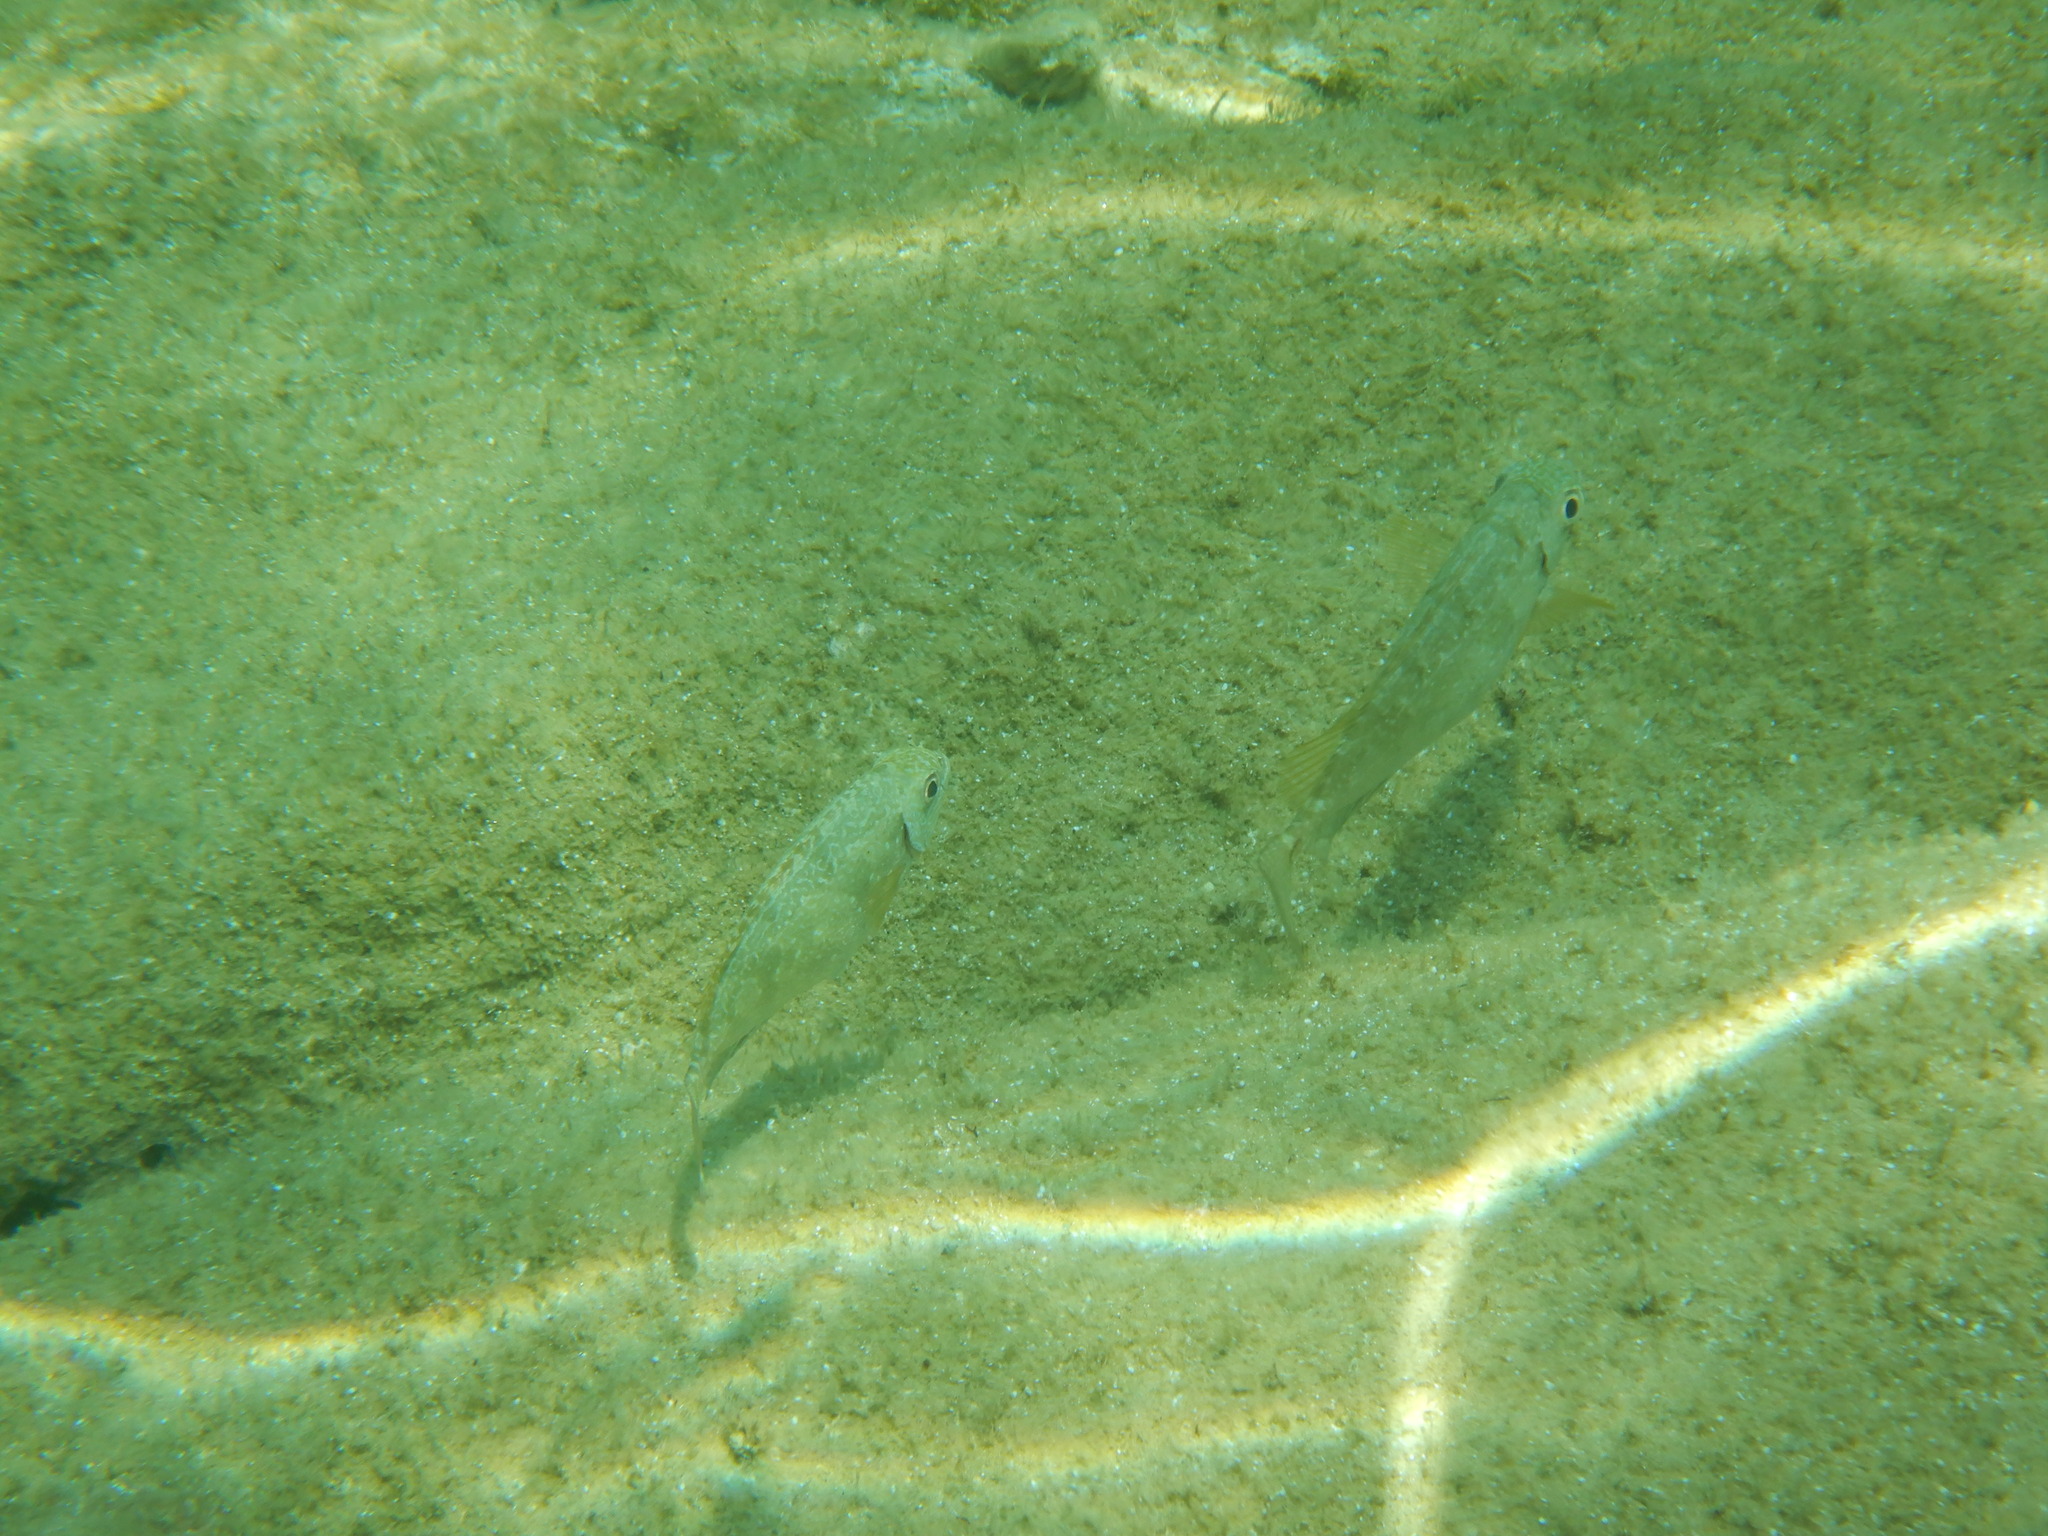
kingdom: Animalia
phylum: Chordata
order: Perciformes
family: Siganidae
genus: Siganus
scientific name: Siganus
